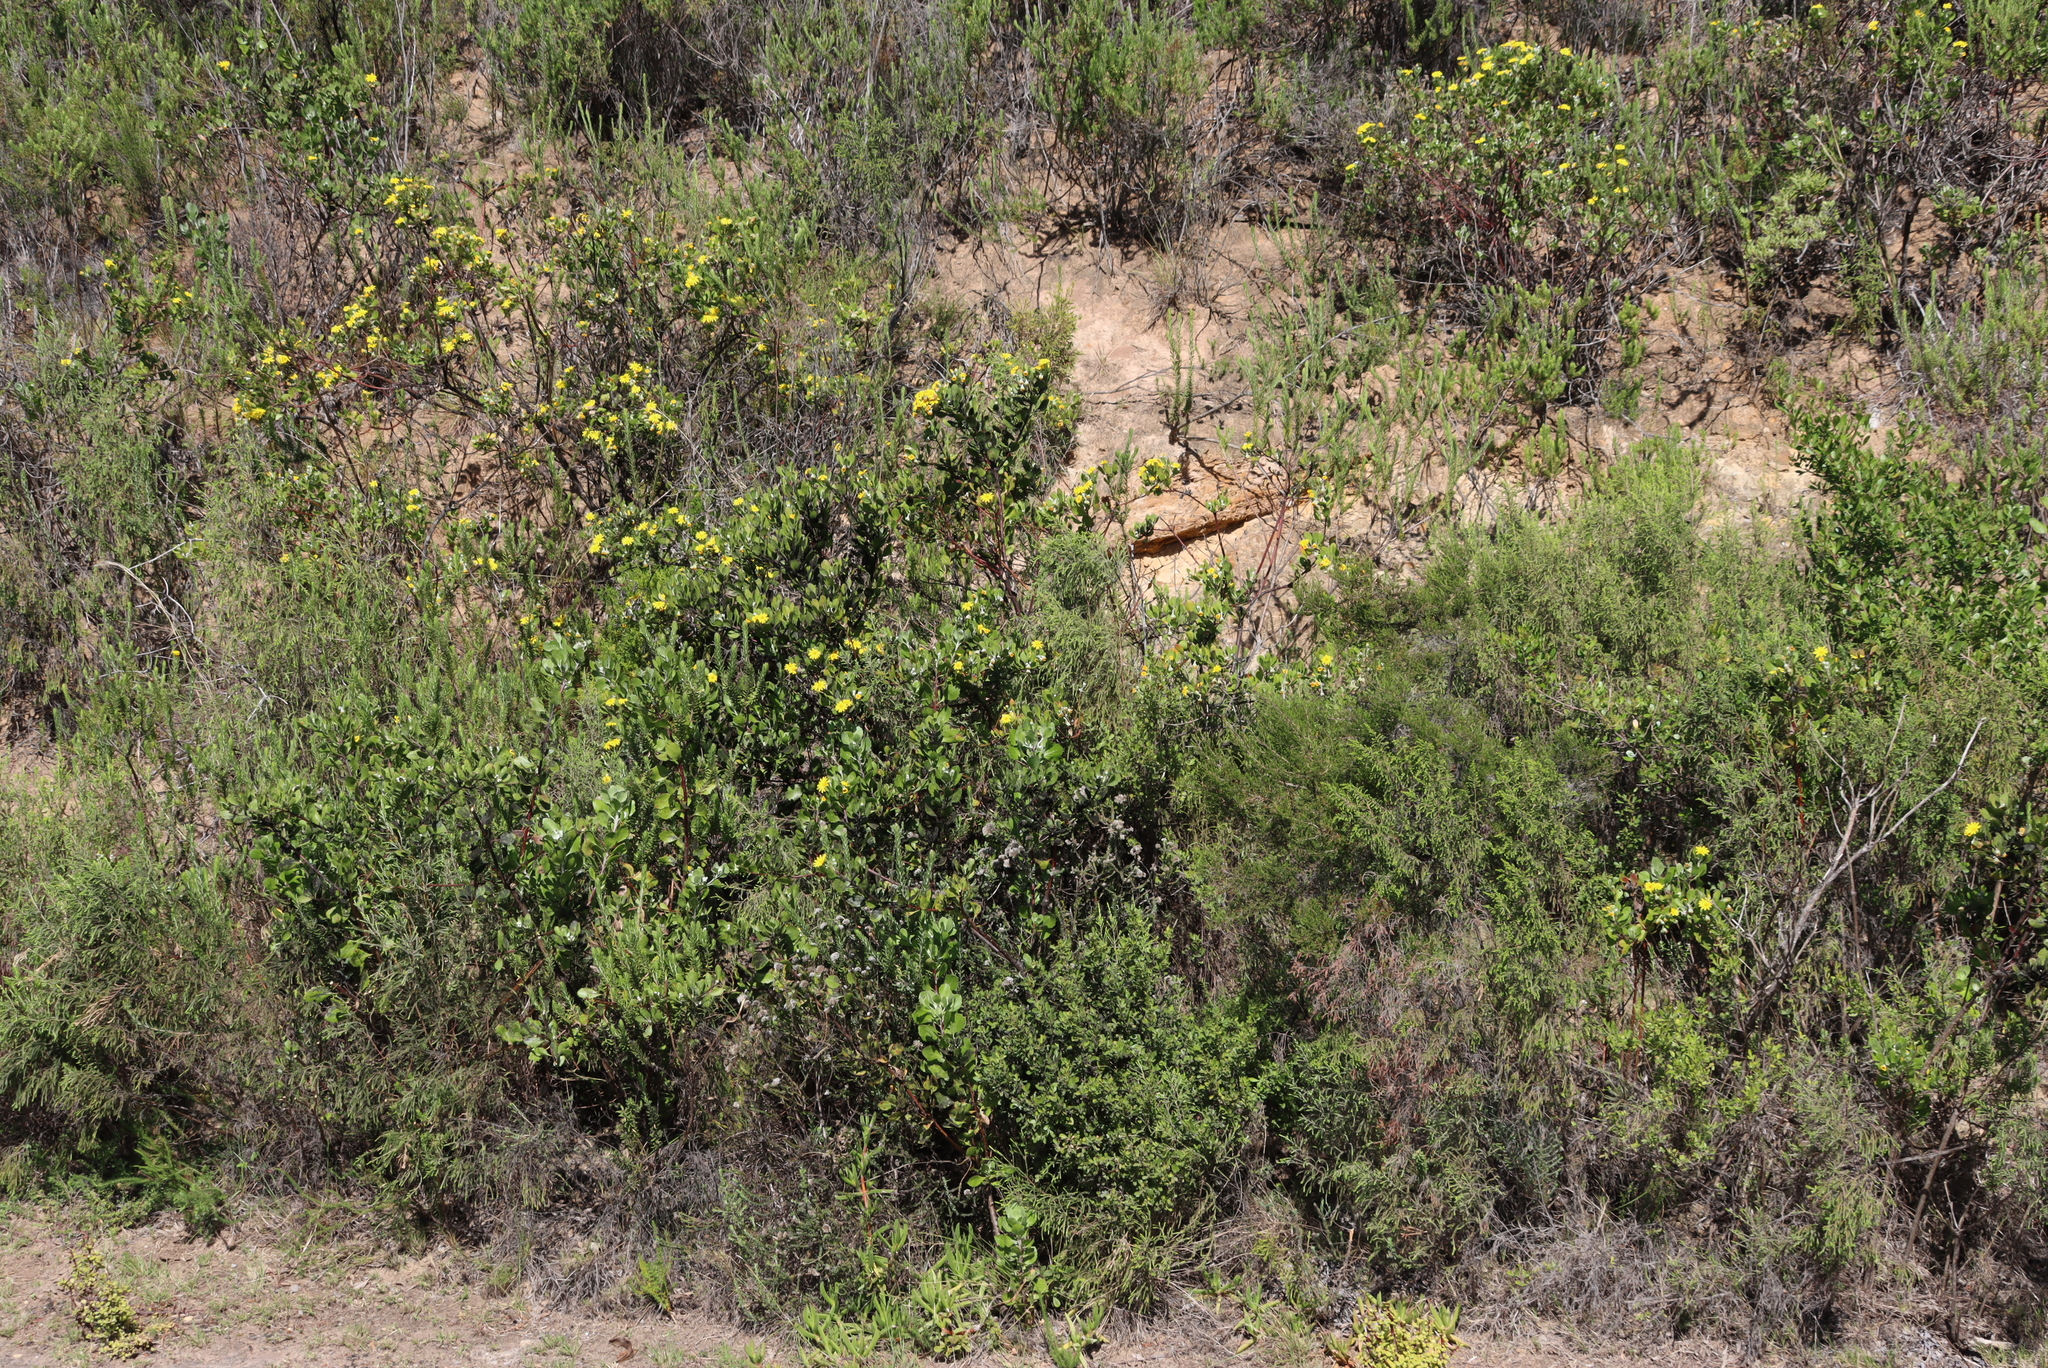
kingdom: Plantae
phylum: Tracheophyta
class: Magnoliopsida
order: Asterales
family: Asteraceae
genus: Osteospermum
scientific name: Osteospermum moniliferum
